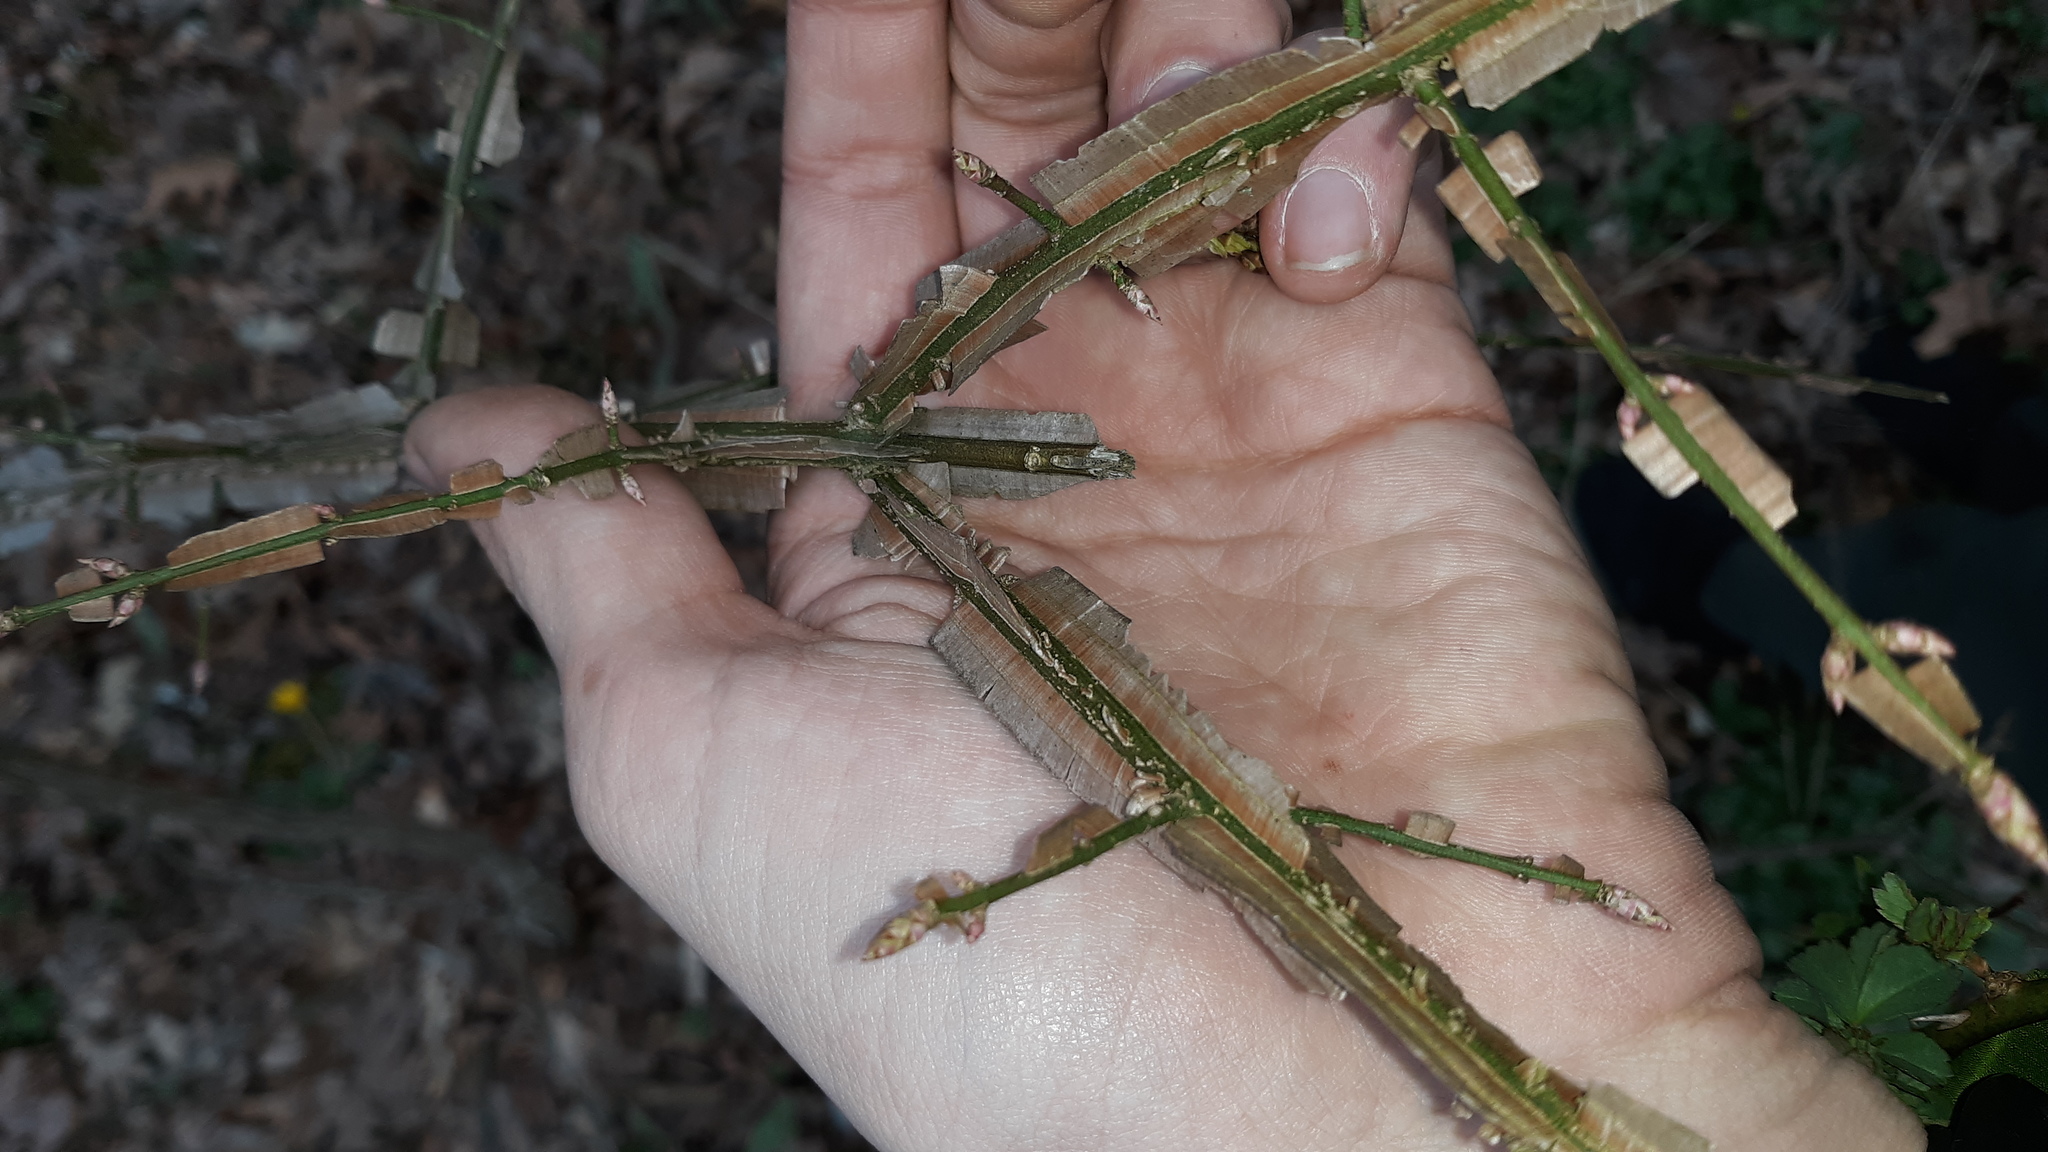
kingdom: Plantae
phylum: Tracheophyta
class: Magnoliopsida
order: Celastrales
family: Celastraceae
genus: Euonymus
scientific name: Euonymus alatus
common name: Winged euonymus
